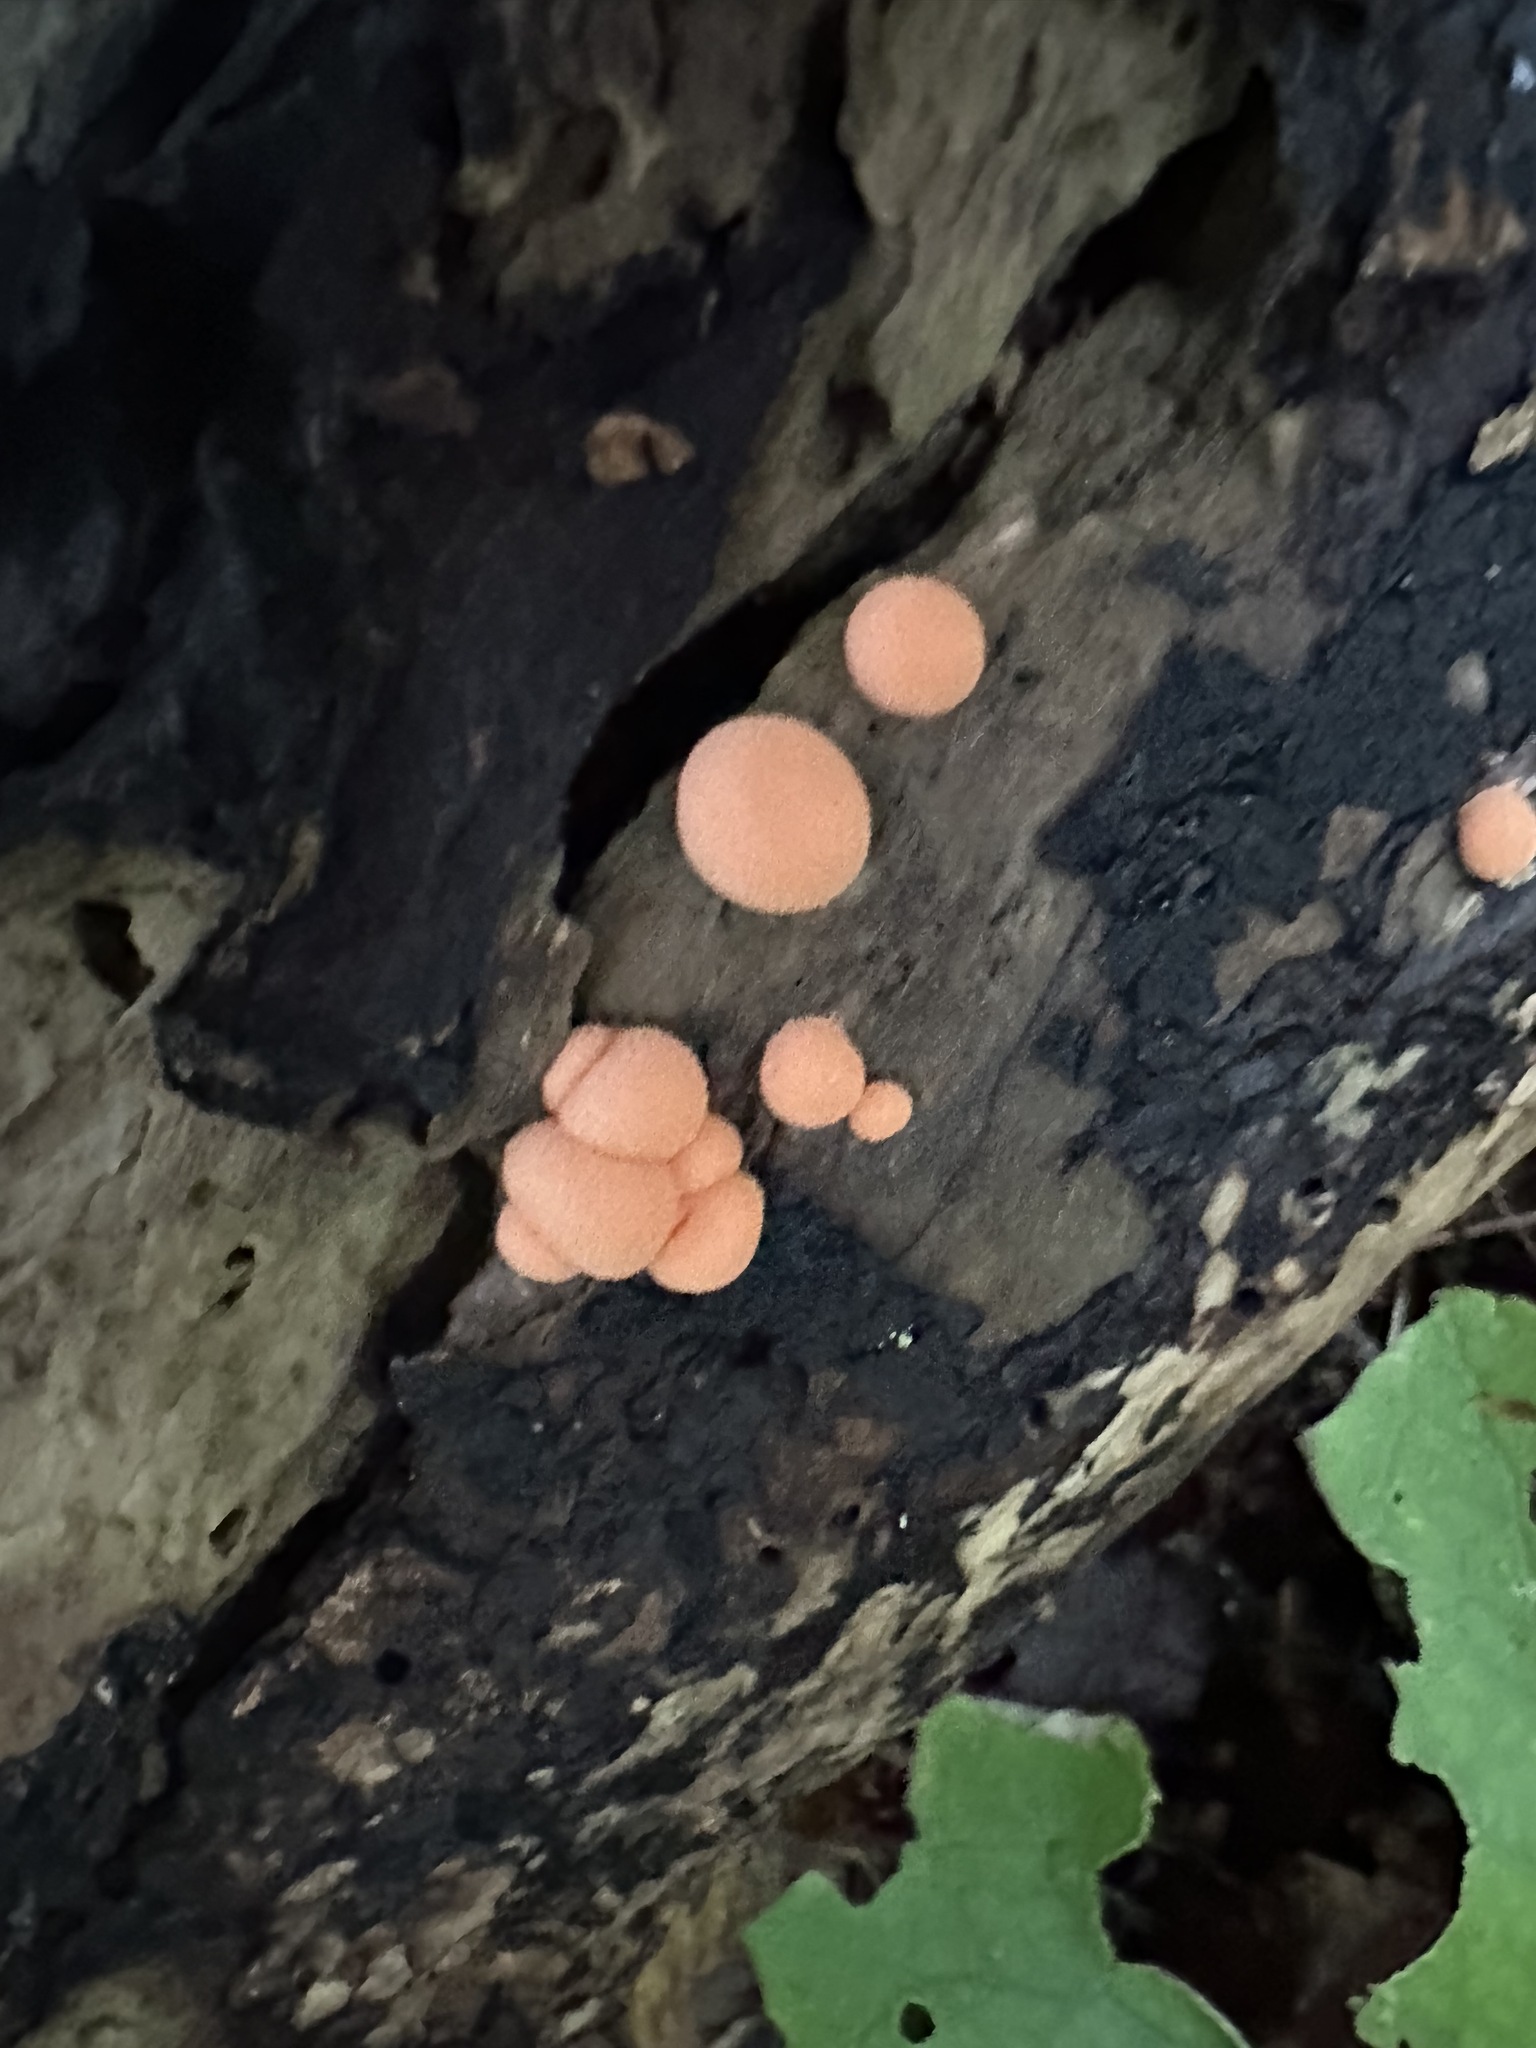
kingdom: Protozoa
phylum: Mycetozoa
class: Myxomycetes
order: Cribrariales
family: Tubiferaceae
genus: Lycogala
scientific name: Lycogala epidendrum
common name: Wolf's milk
